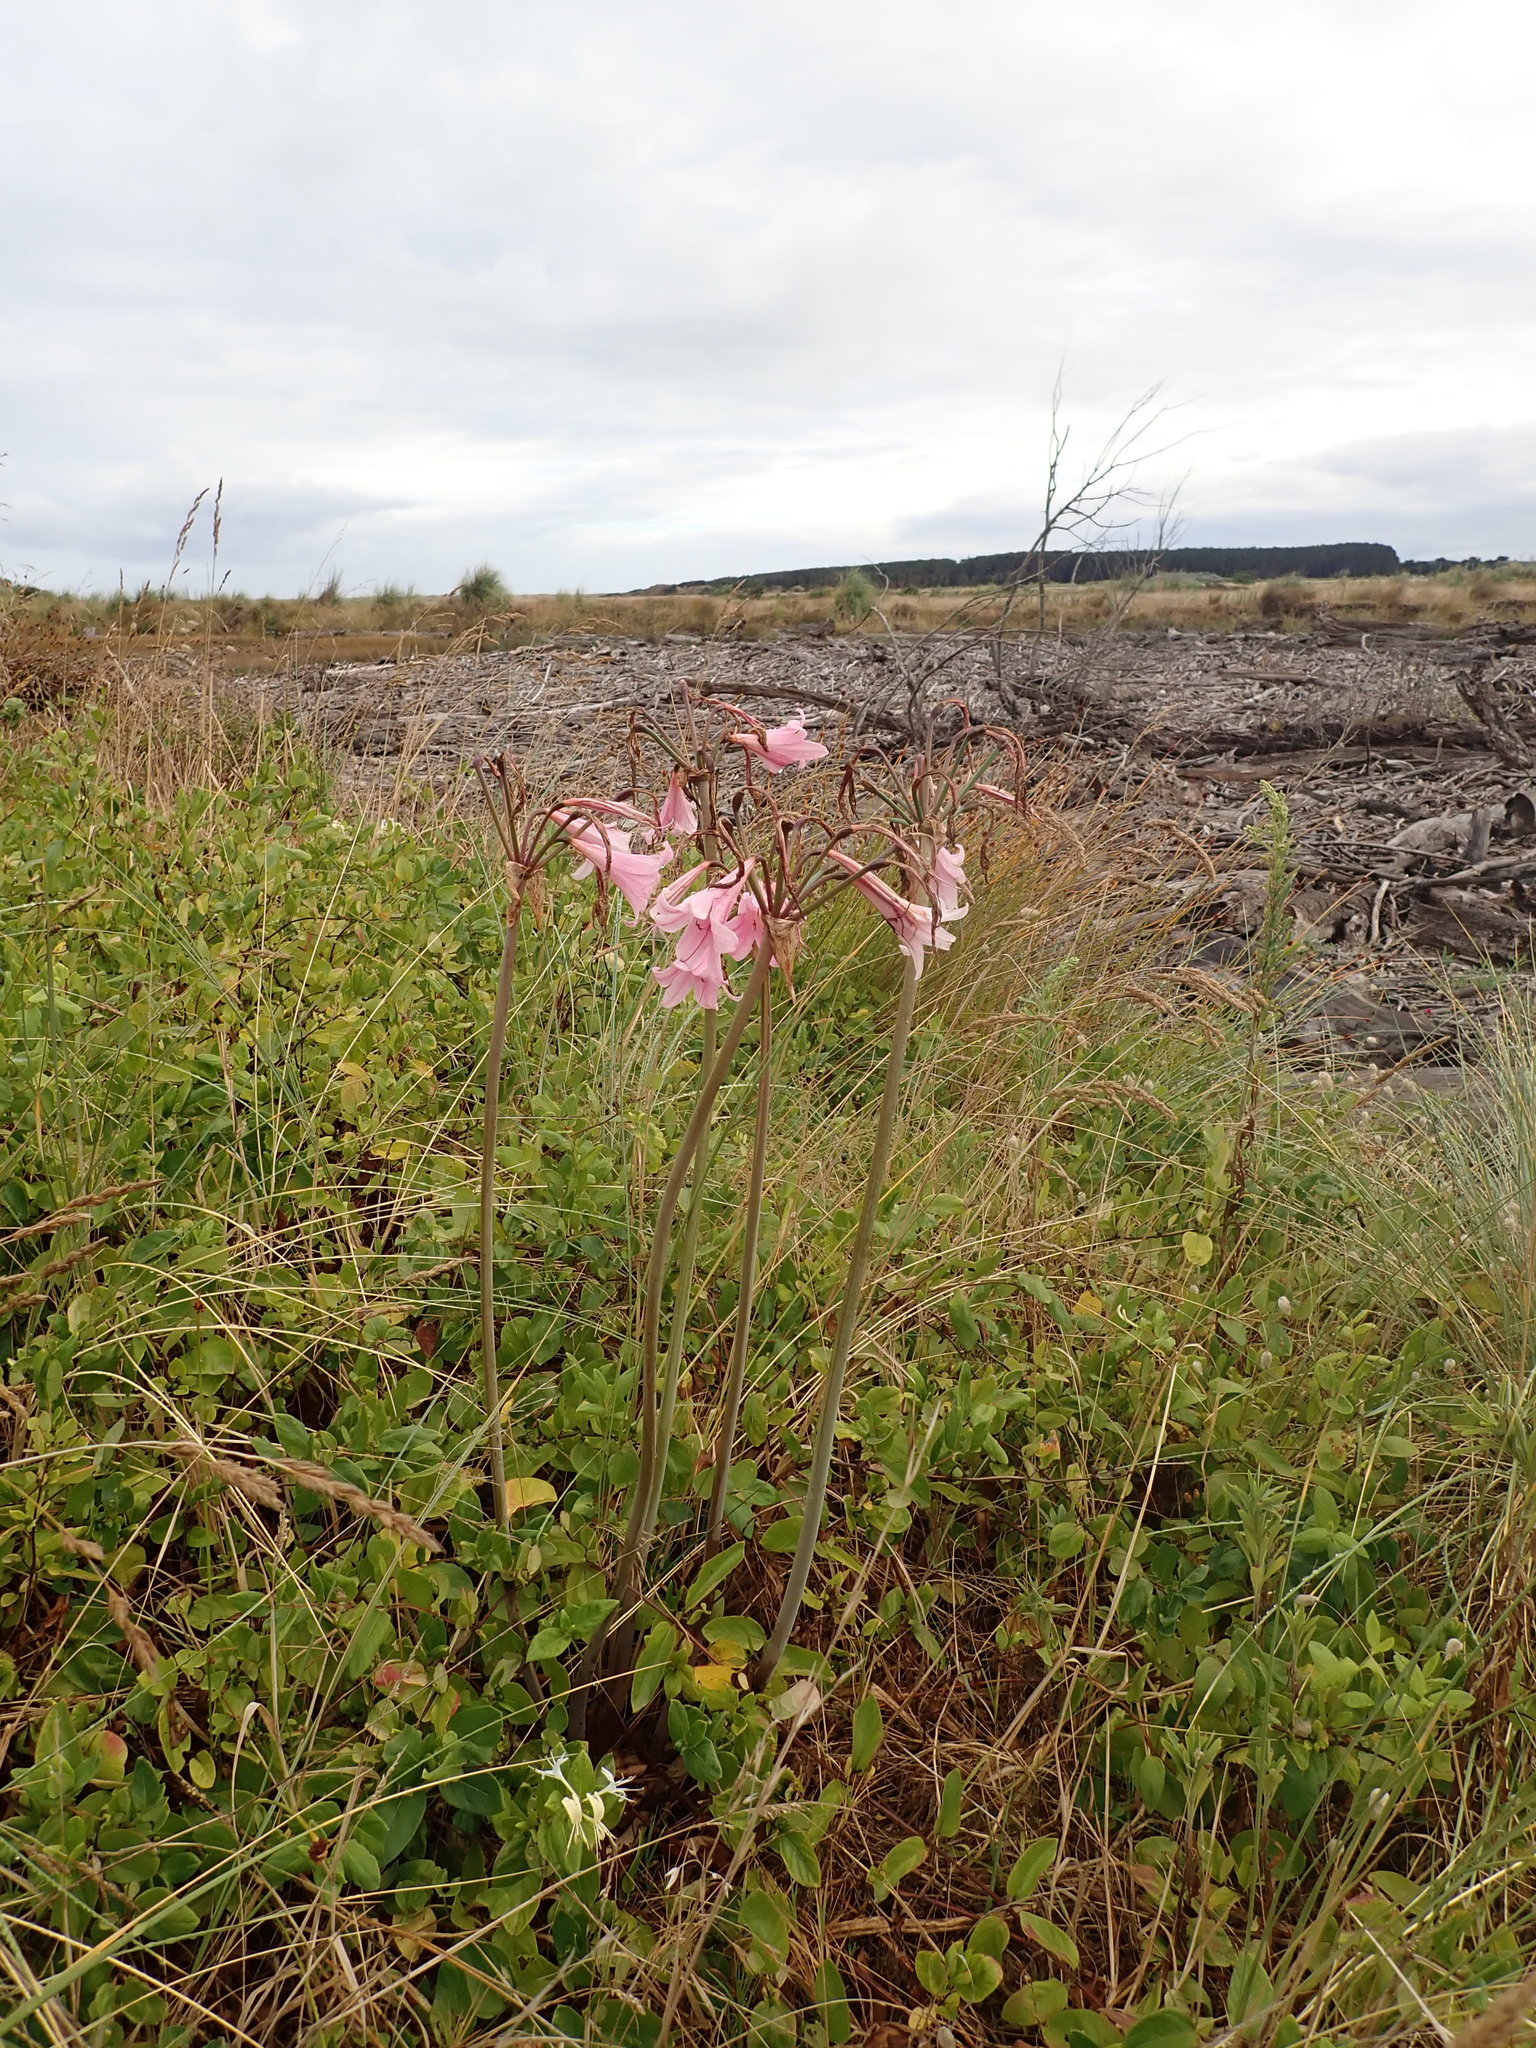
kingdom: Plantae
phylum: Tracheophyta
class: Liliopsida
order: Asparagales
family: Amaryllidaceae
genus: Amaryllis
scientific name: Amaryllis belladonna
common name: Jersey lily
